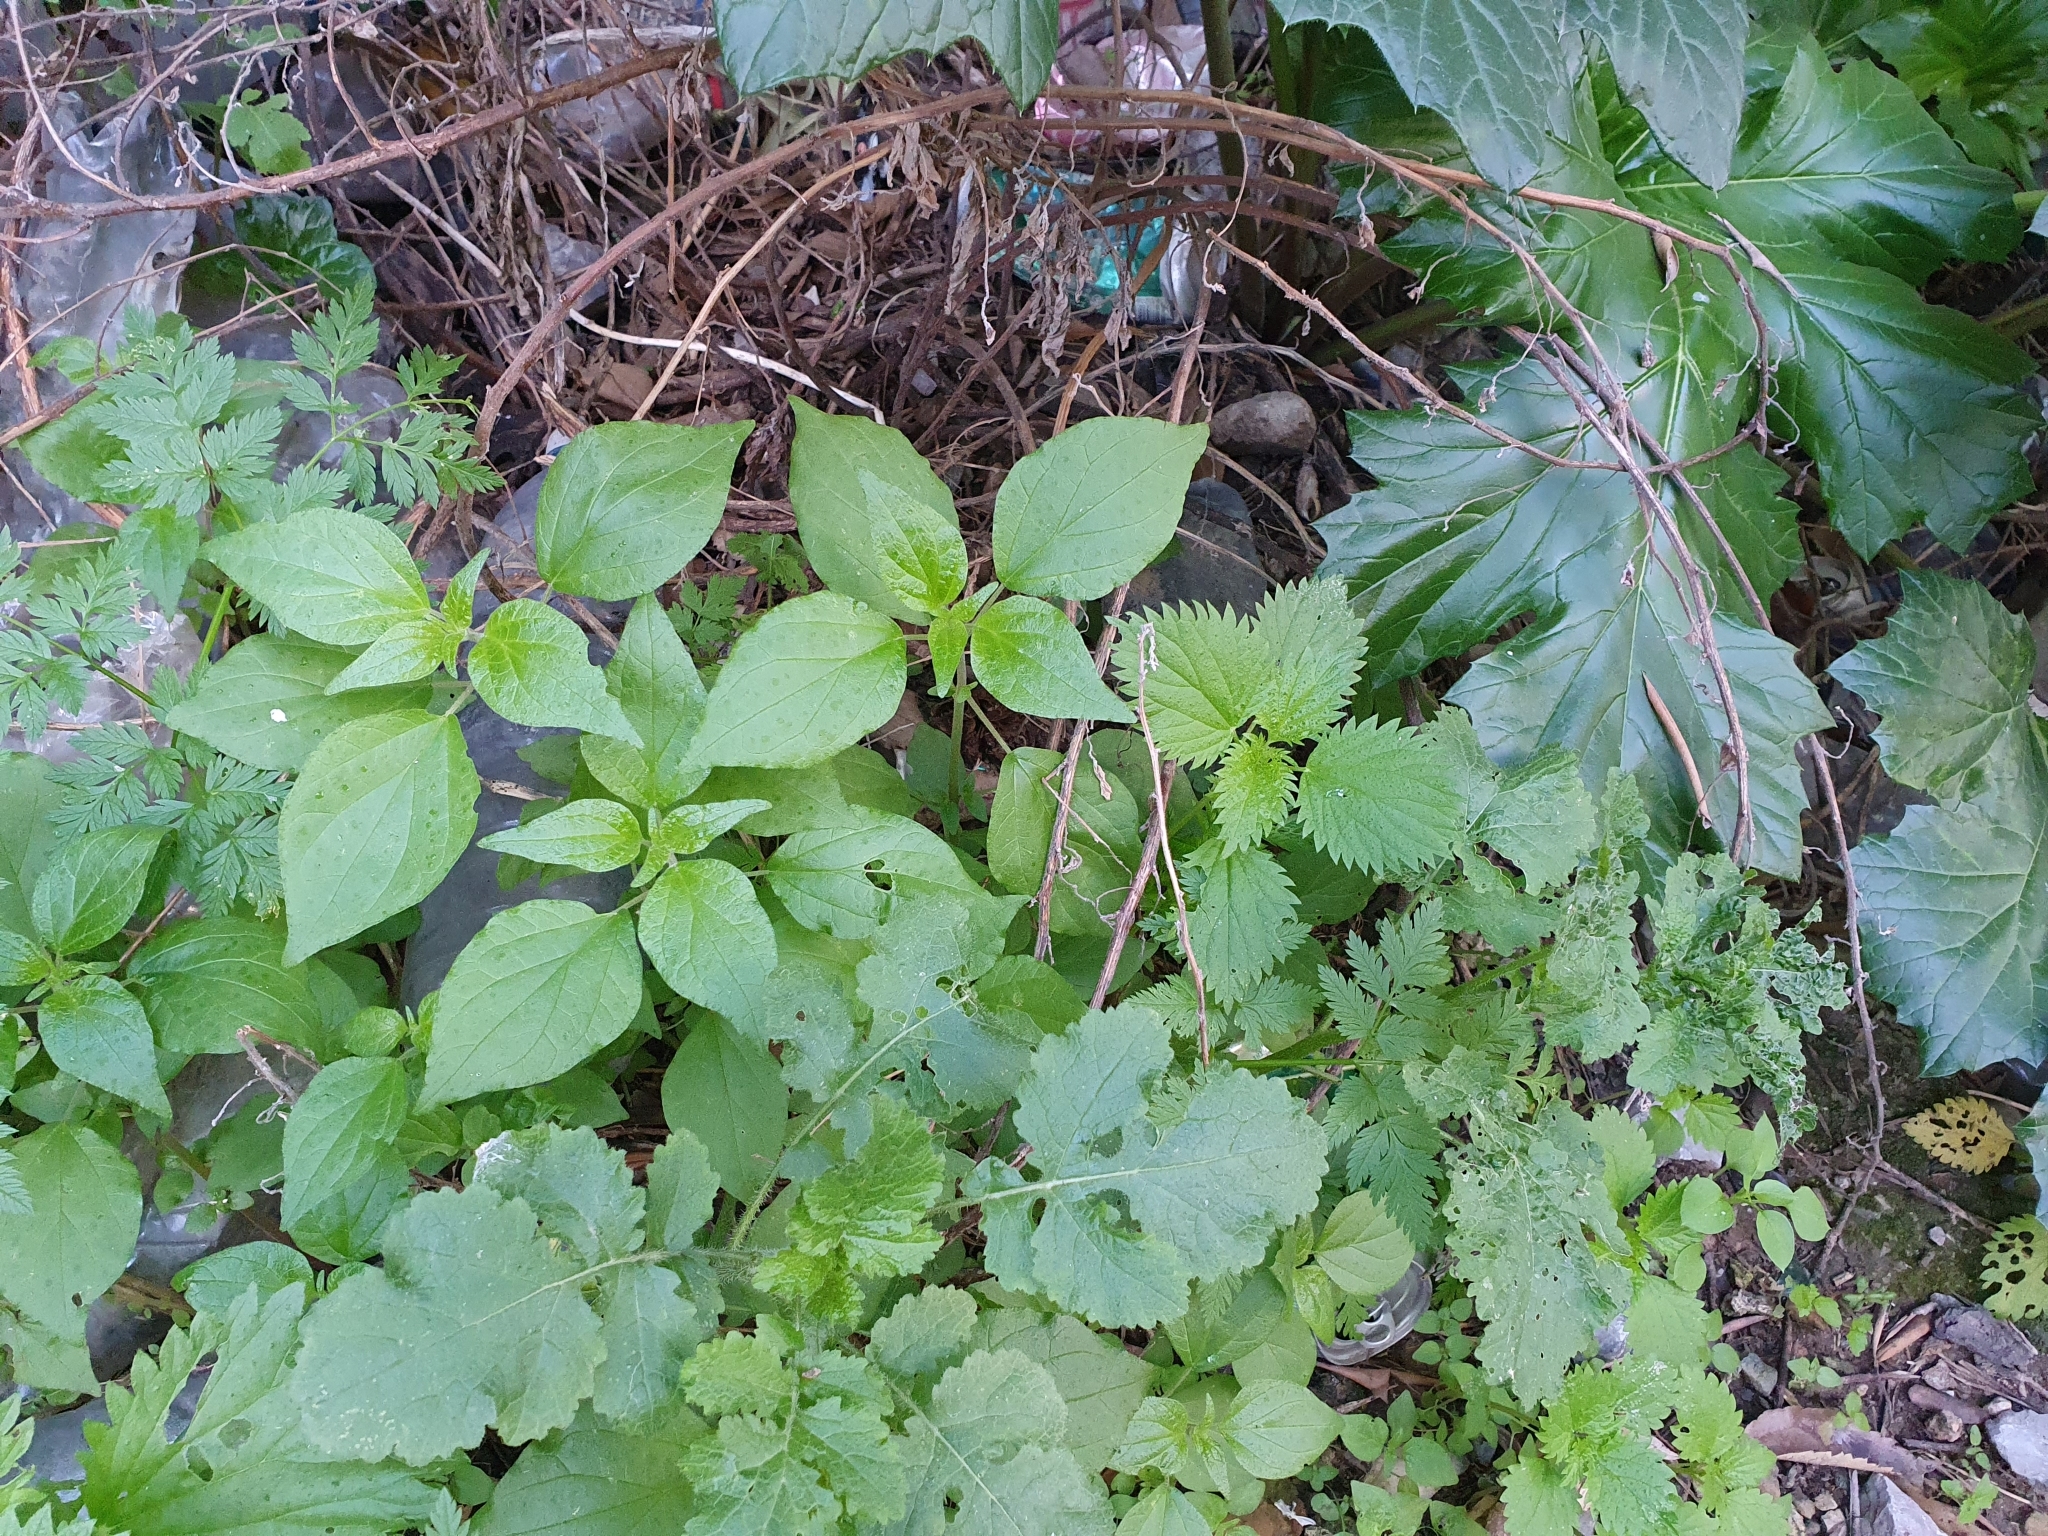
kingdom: Plantae
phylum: Tracheophyta
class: Magnoliopsida
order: Rosales
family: Urticaceae
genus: Parietaria
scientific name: Parietaria judaica
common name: Pellitory-of-the-wall
